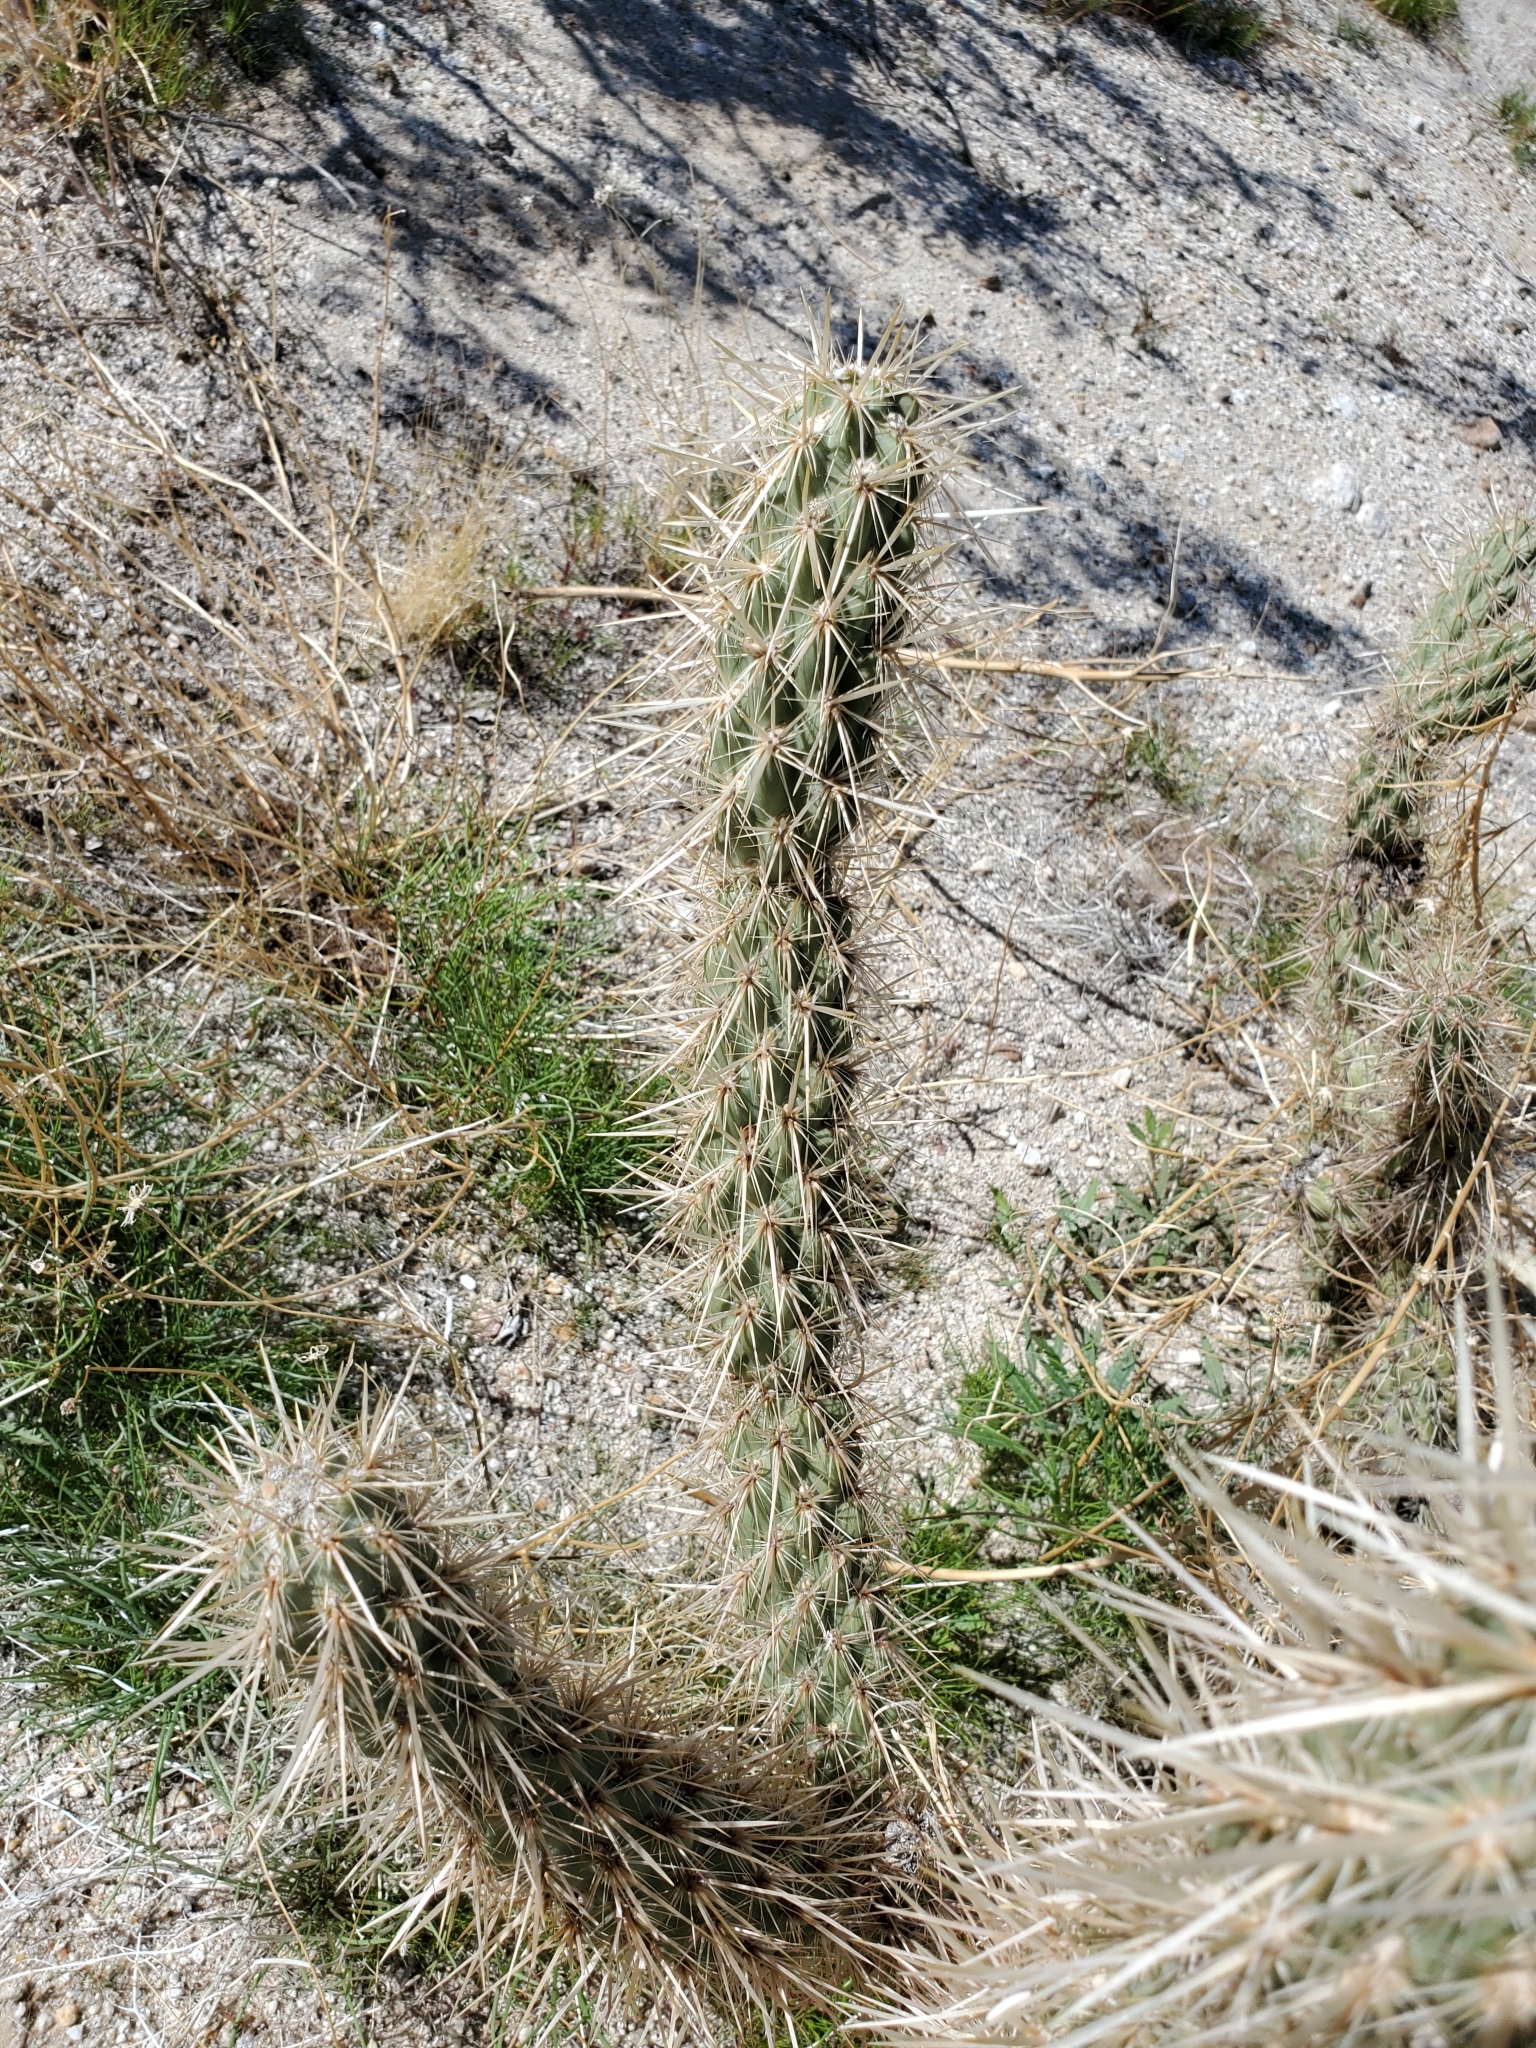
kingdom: Plantae
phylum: Tracheophyta
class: Magnoliopsida
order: Caryophyllales
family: Cactaceae
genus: Cylindropuntia
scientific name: Cylindropuntia ganderi
